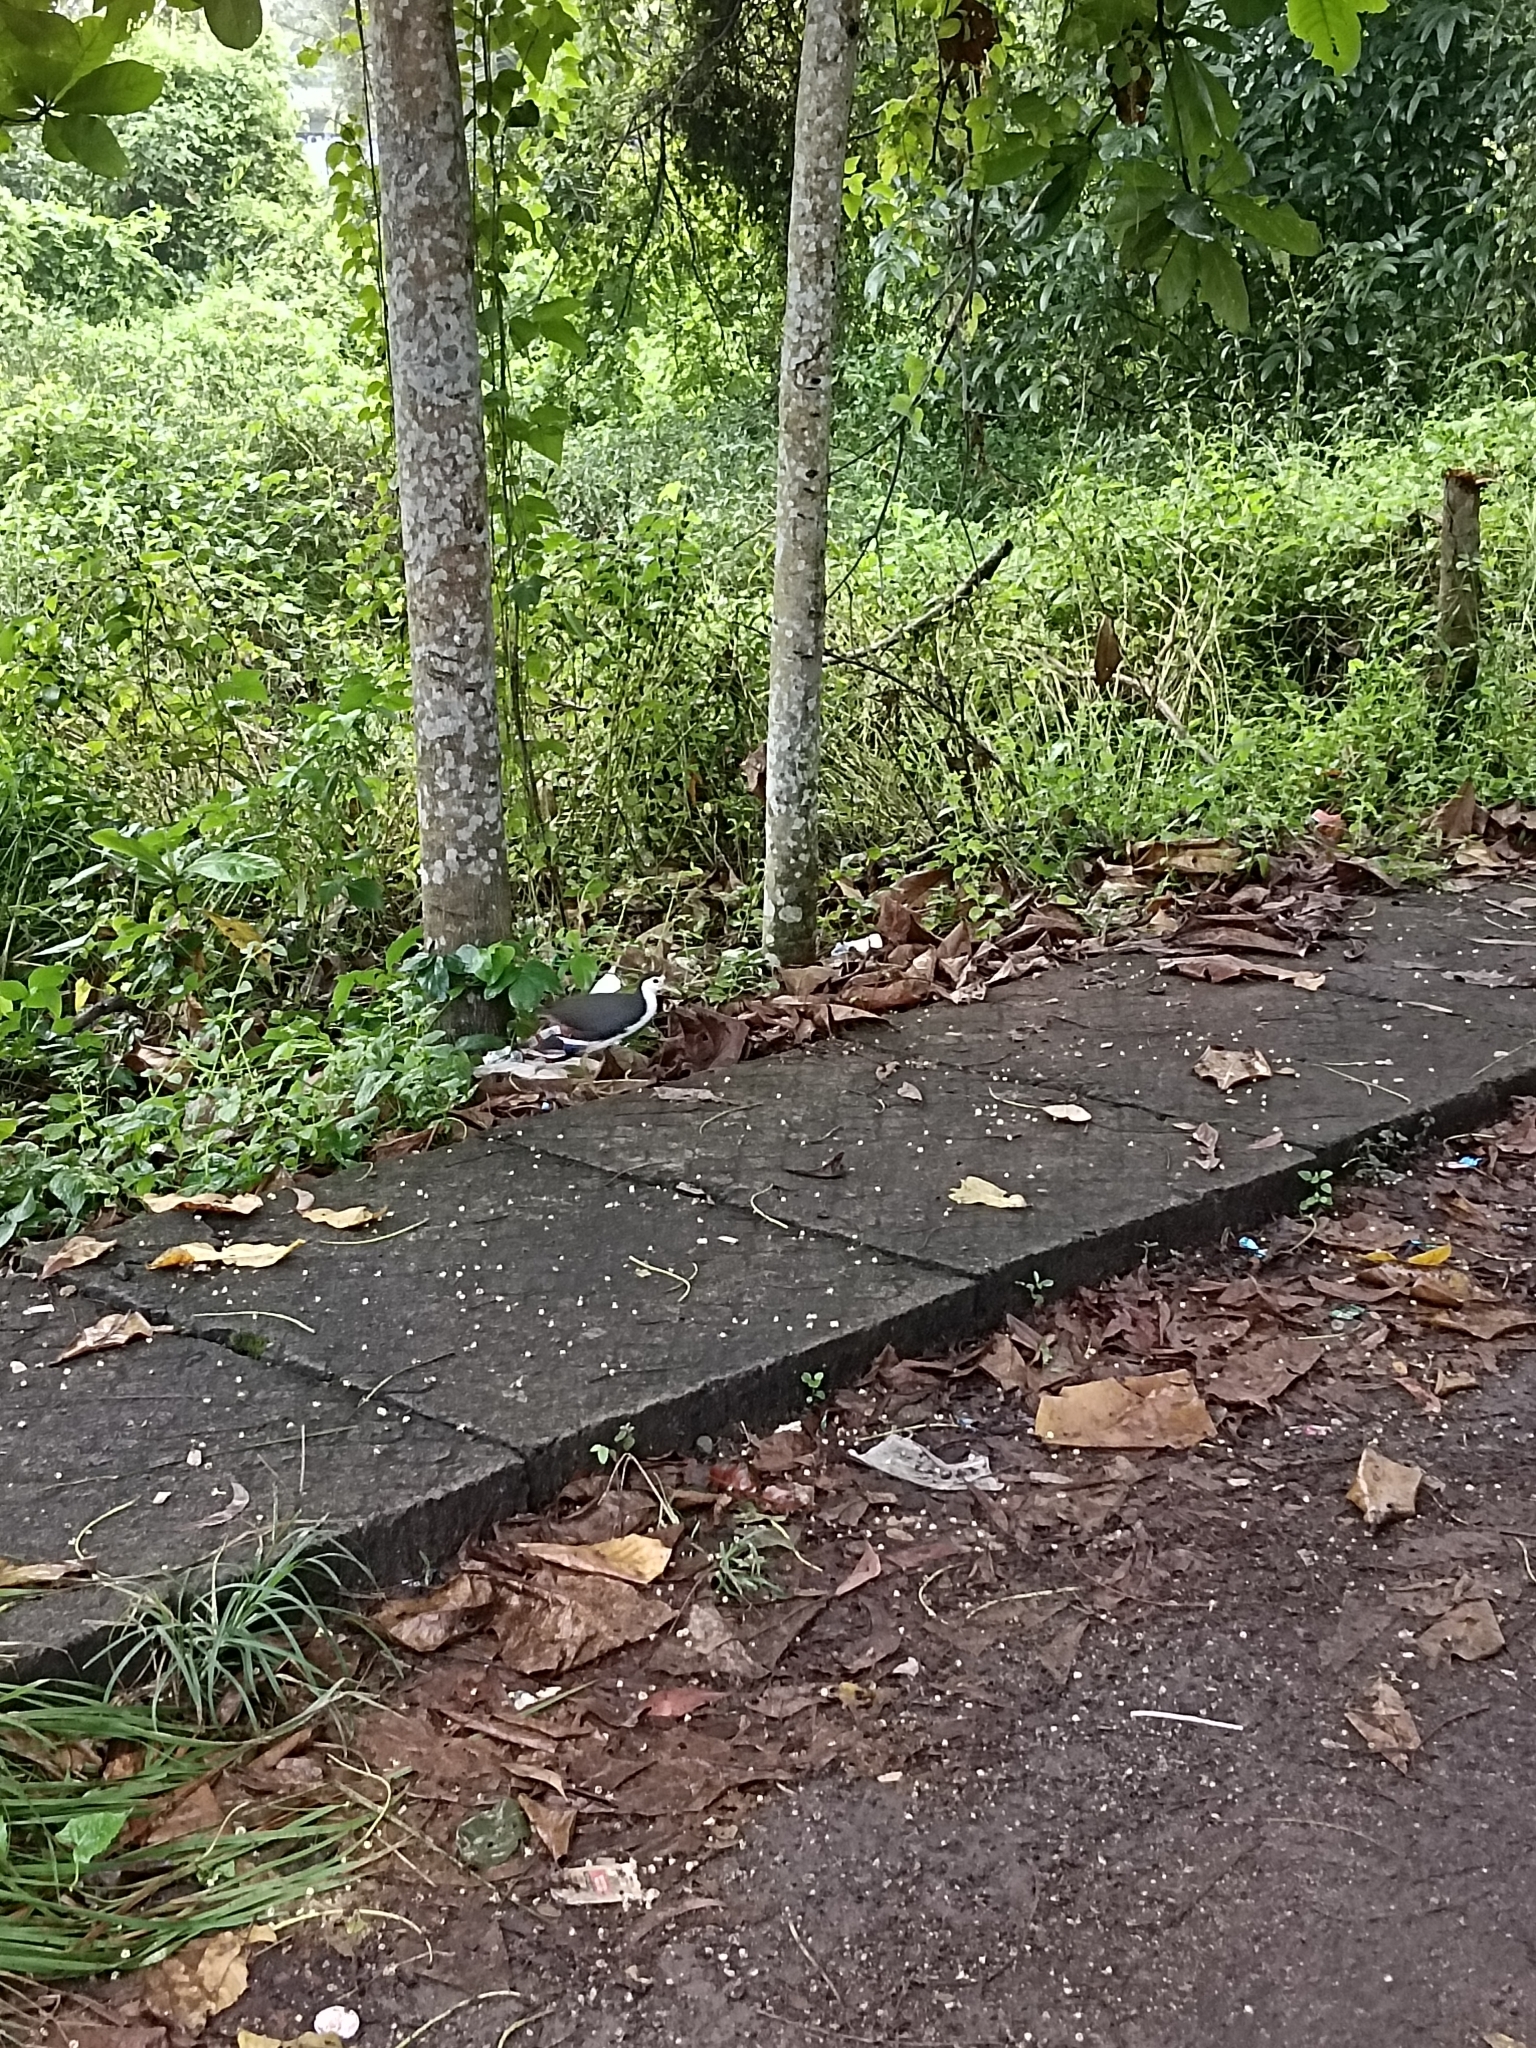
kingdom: Animalia
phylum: Chordata
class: Aves
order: Gruiformes
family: Rallidae
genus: Amaurornis
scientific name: Amaurornis phoenicurus
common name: White-breasted waterhen
